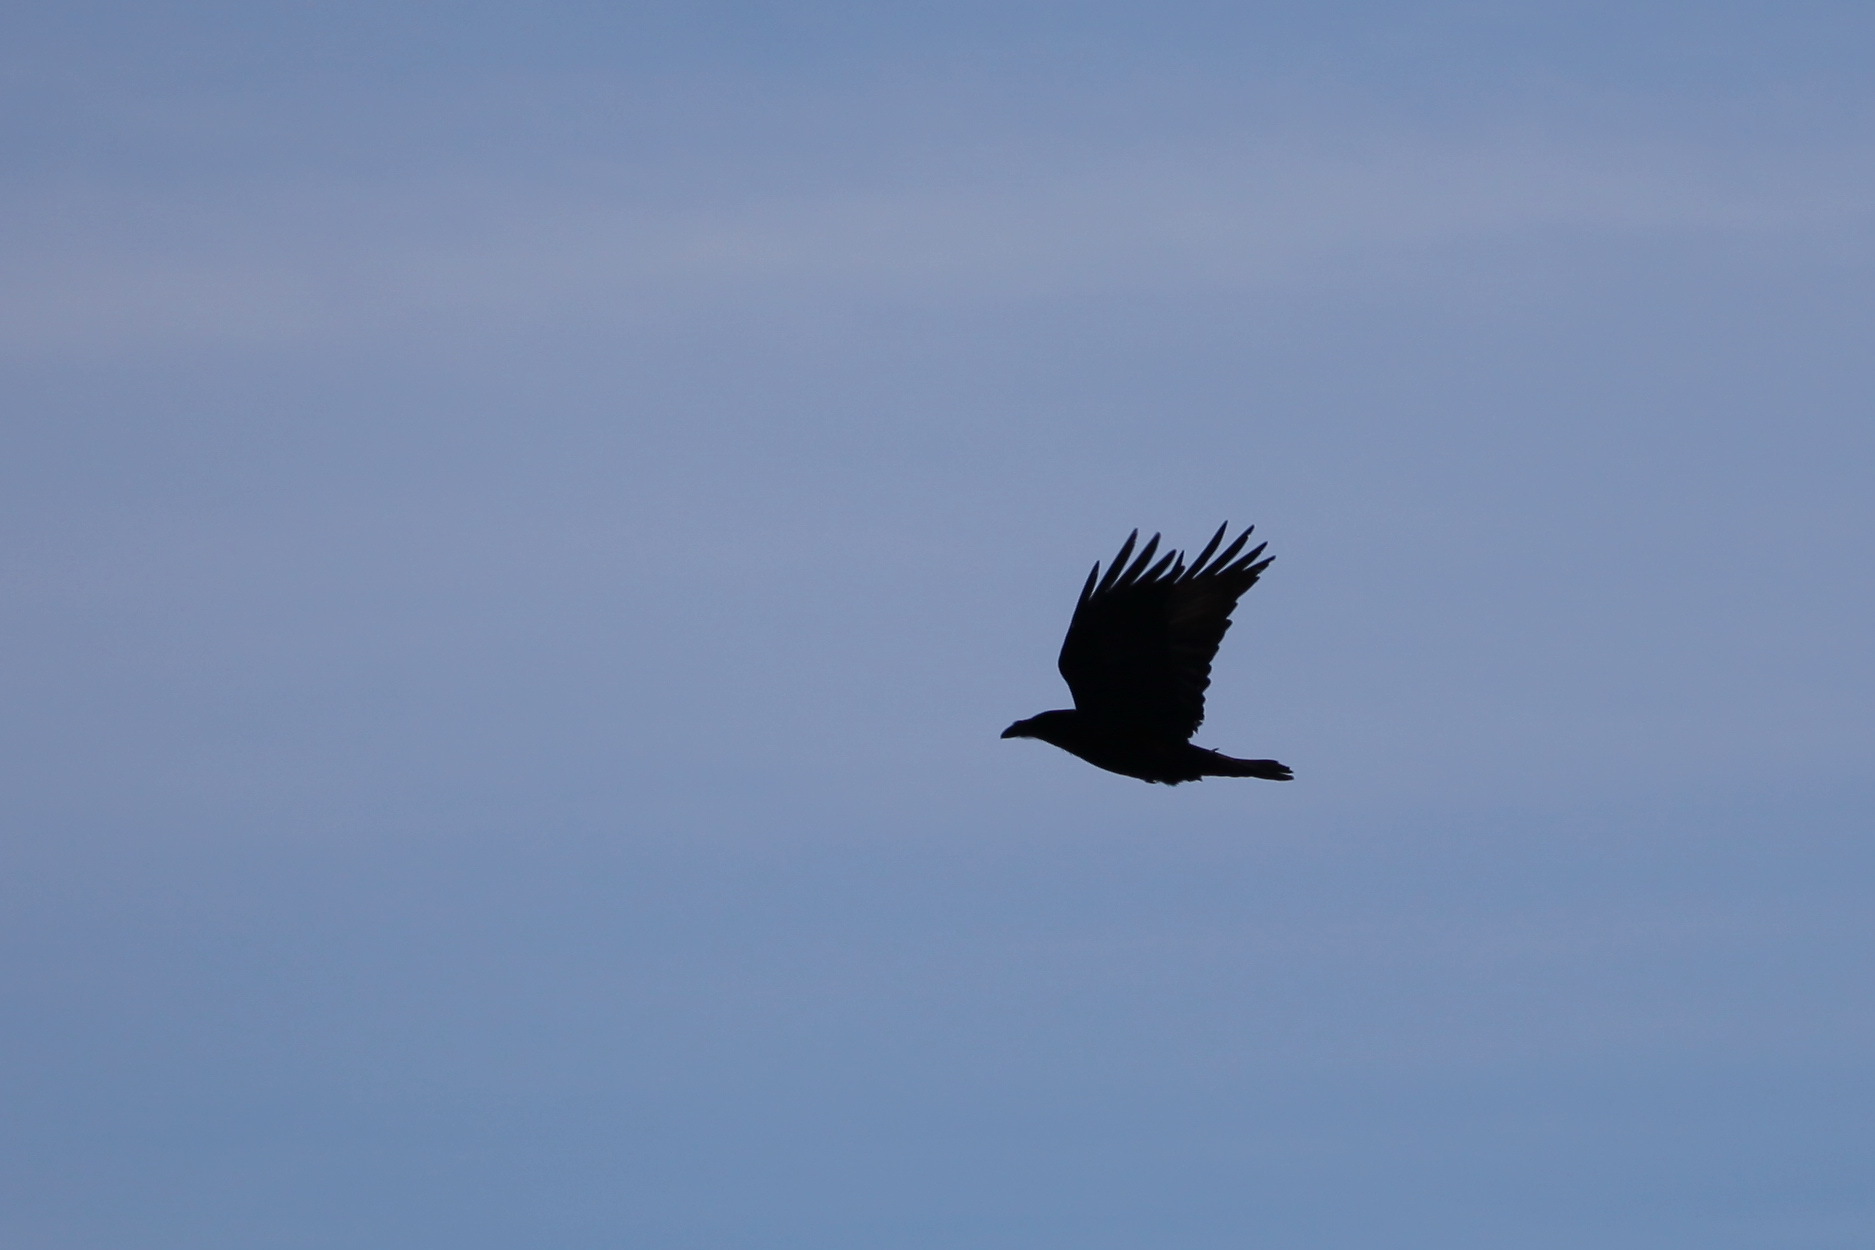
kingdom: Animalia
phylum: Chordata
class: Aves
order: Passeriformes
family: Corvidae
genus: Corvus
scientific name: Corvus corax
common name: Common raven
